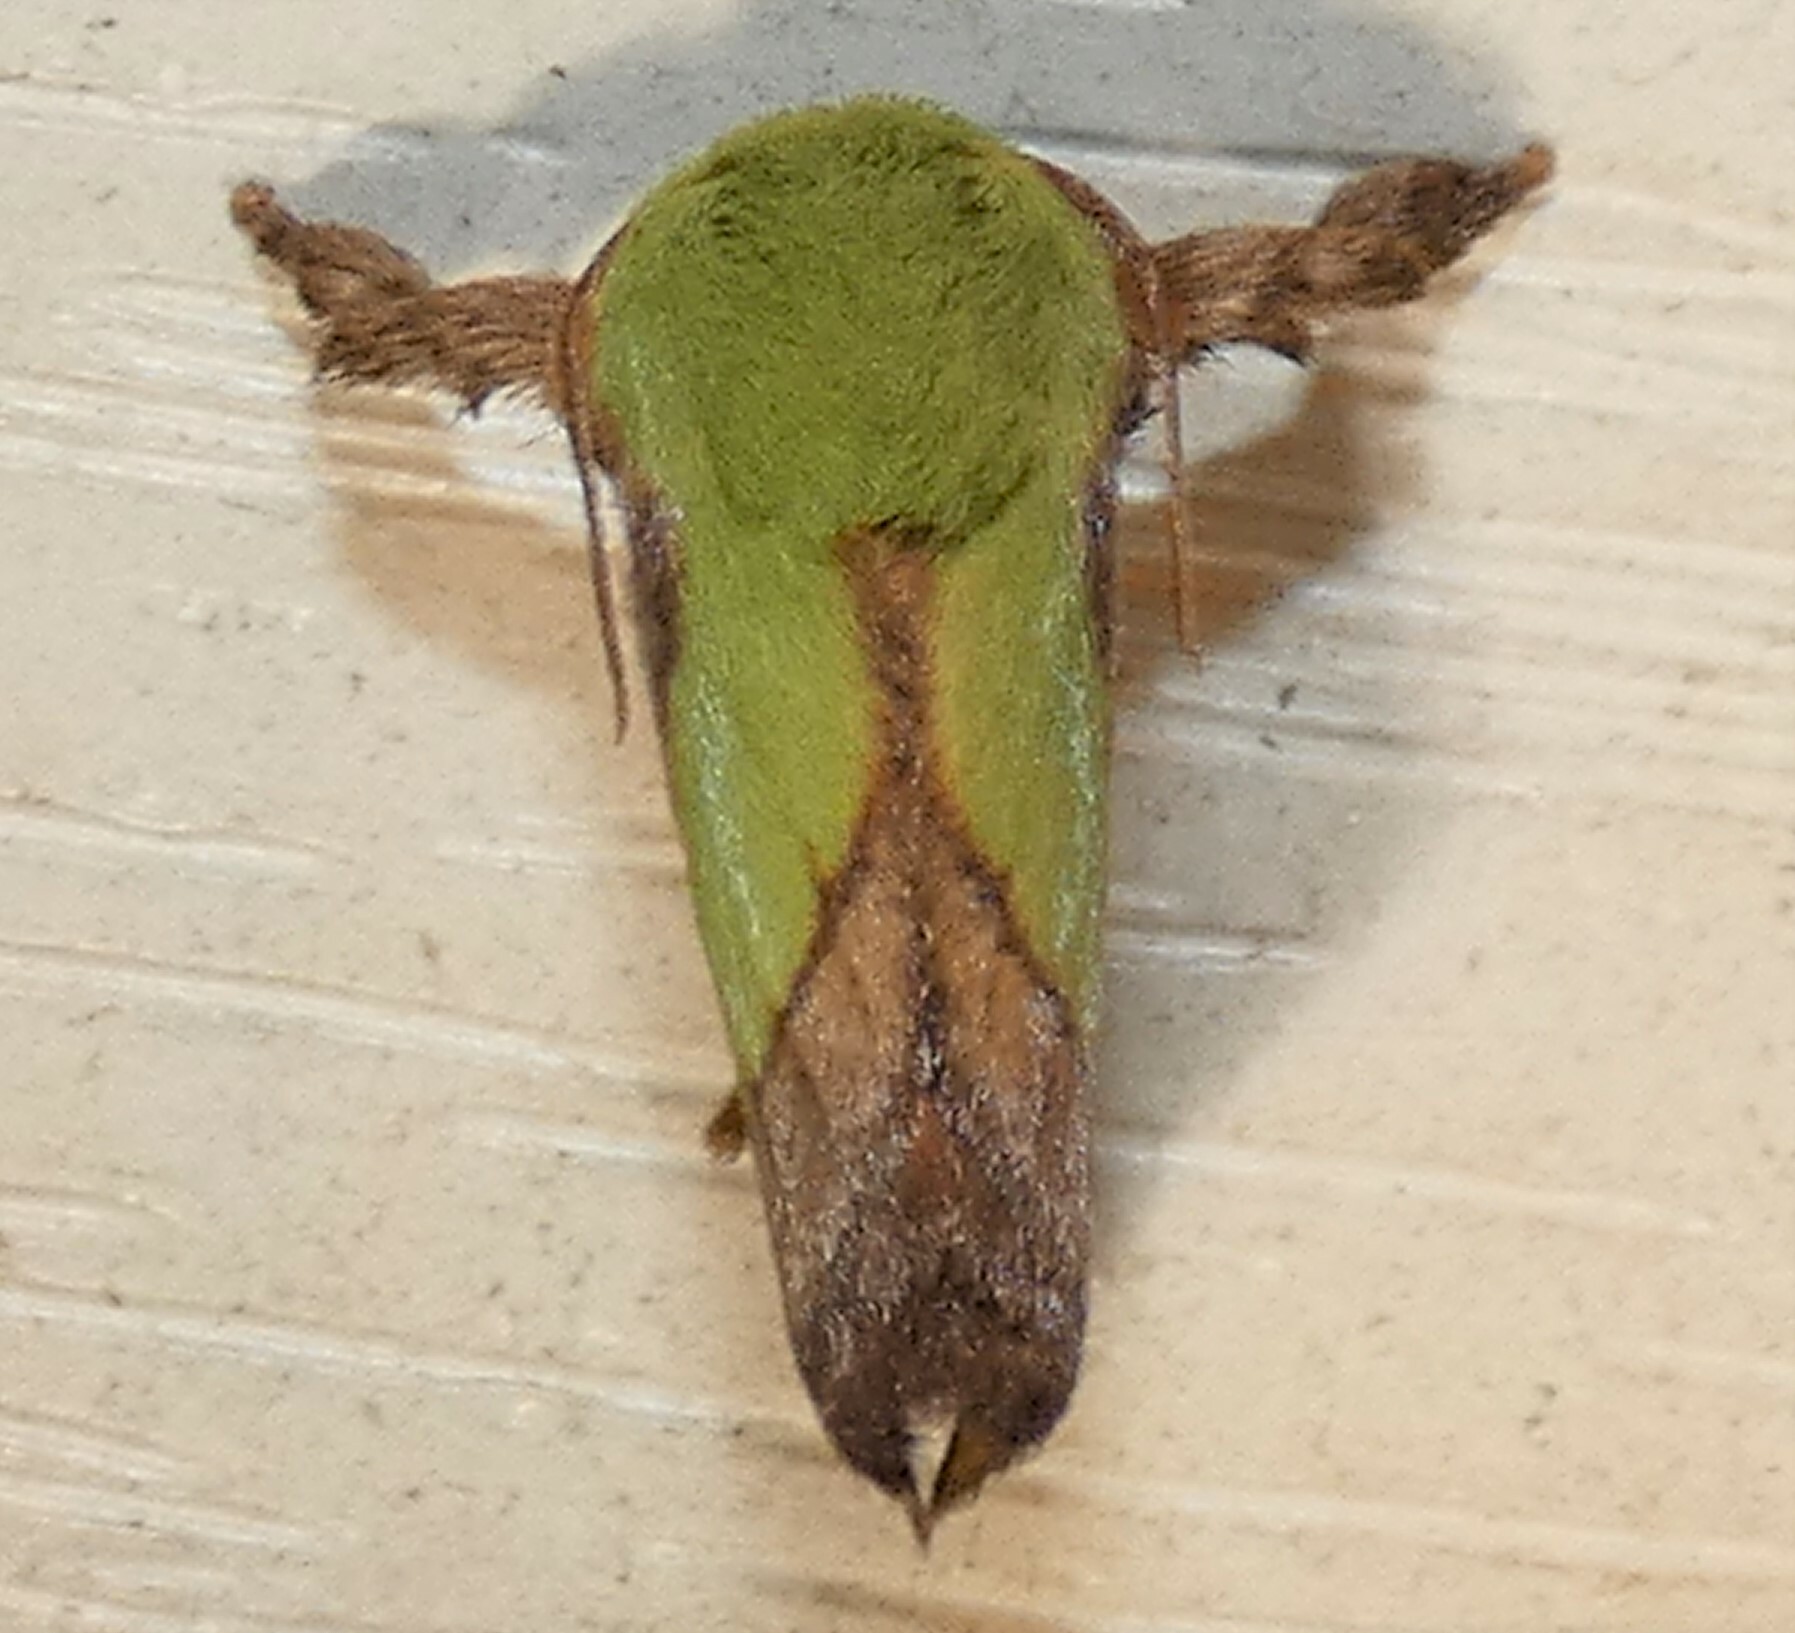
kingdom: Animalia
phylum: Arthropoda
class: Insecta
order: Lepidoptera
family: Limacodidae
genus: Parasa
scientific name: Parasa chloris
